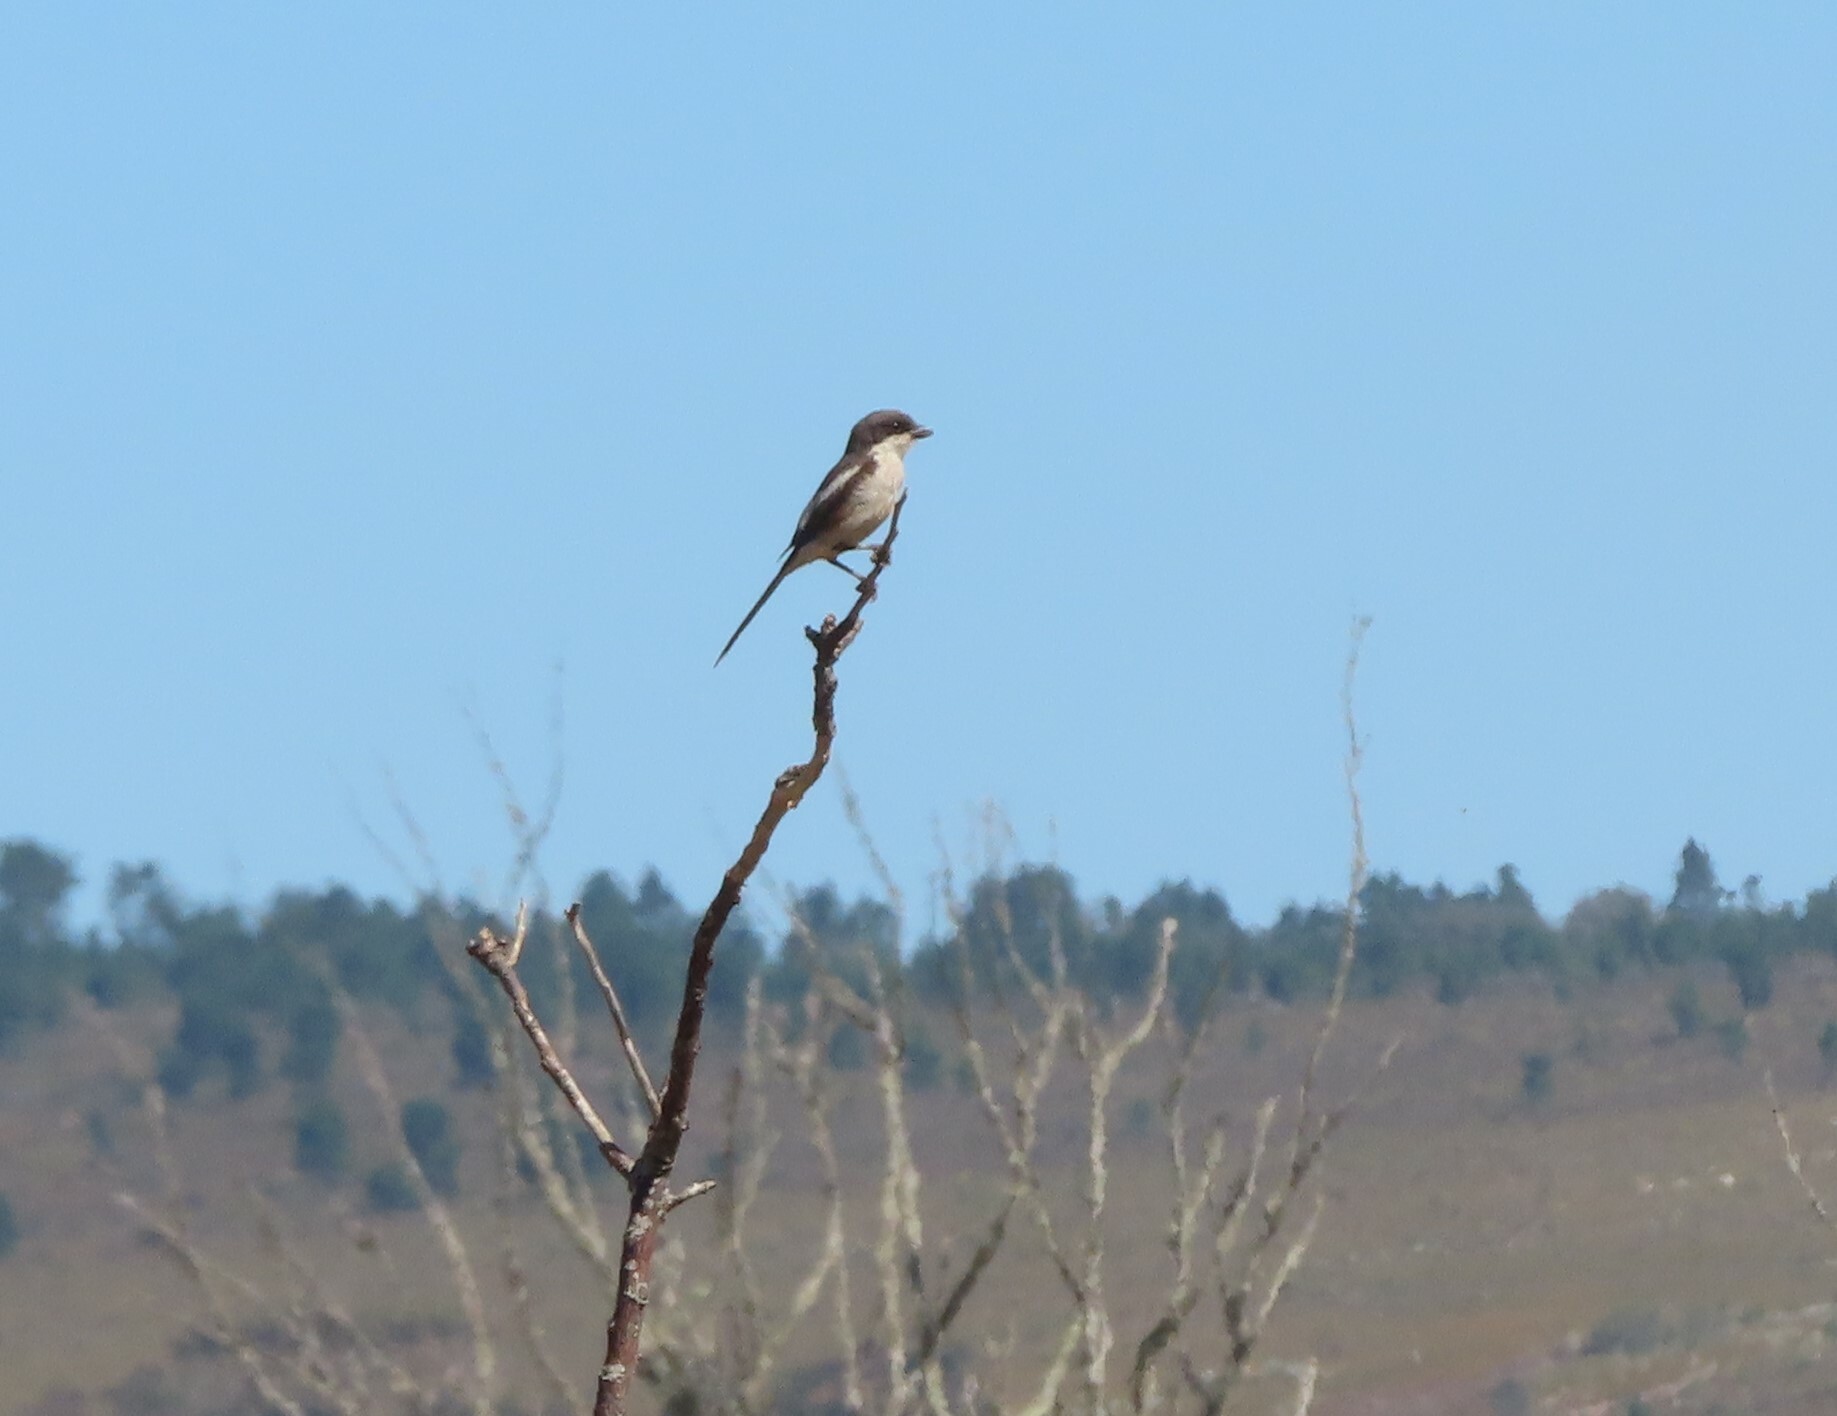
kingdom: Animalia
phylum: Chordata
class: Aves
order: Passeriformes
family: Laniidae
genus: Lanius
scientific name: Lanius collaris
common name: Southern fiscal
